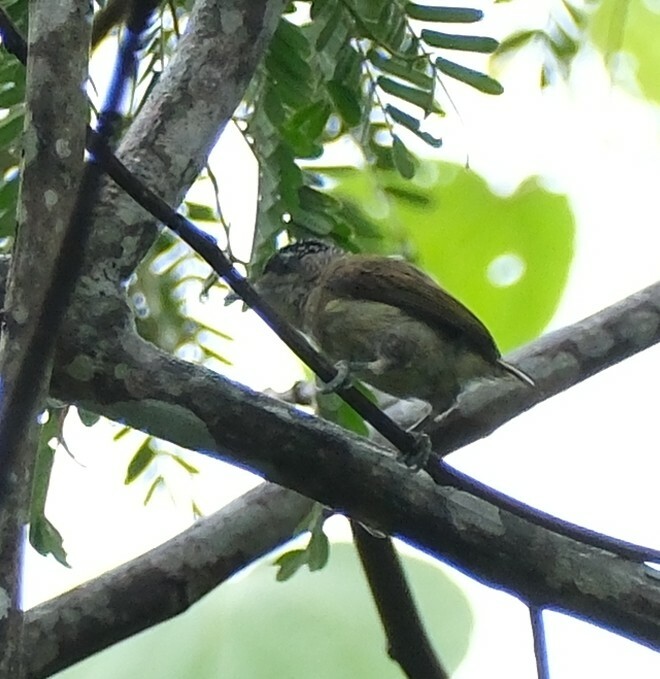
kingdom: Animalia
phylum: Chordata
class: Aves
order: Piciformes
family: Picidae
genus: Picumnus
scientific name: Picumnus subtilis
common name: Fine-barred piculet
